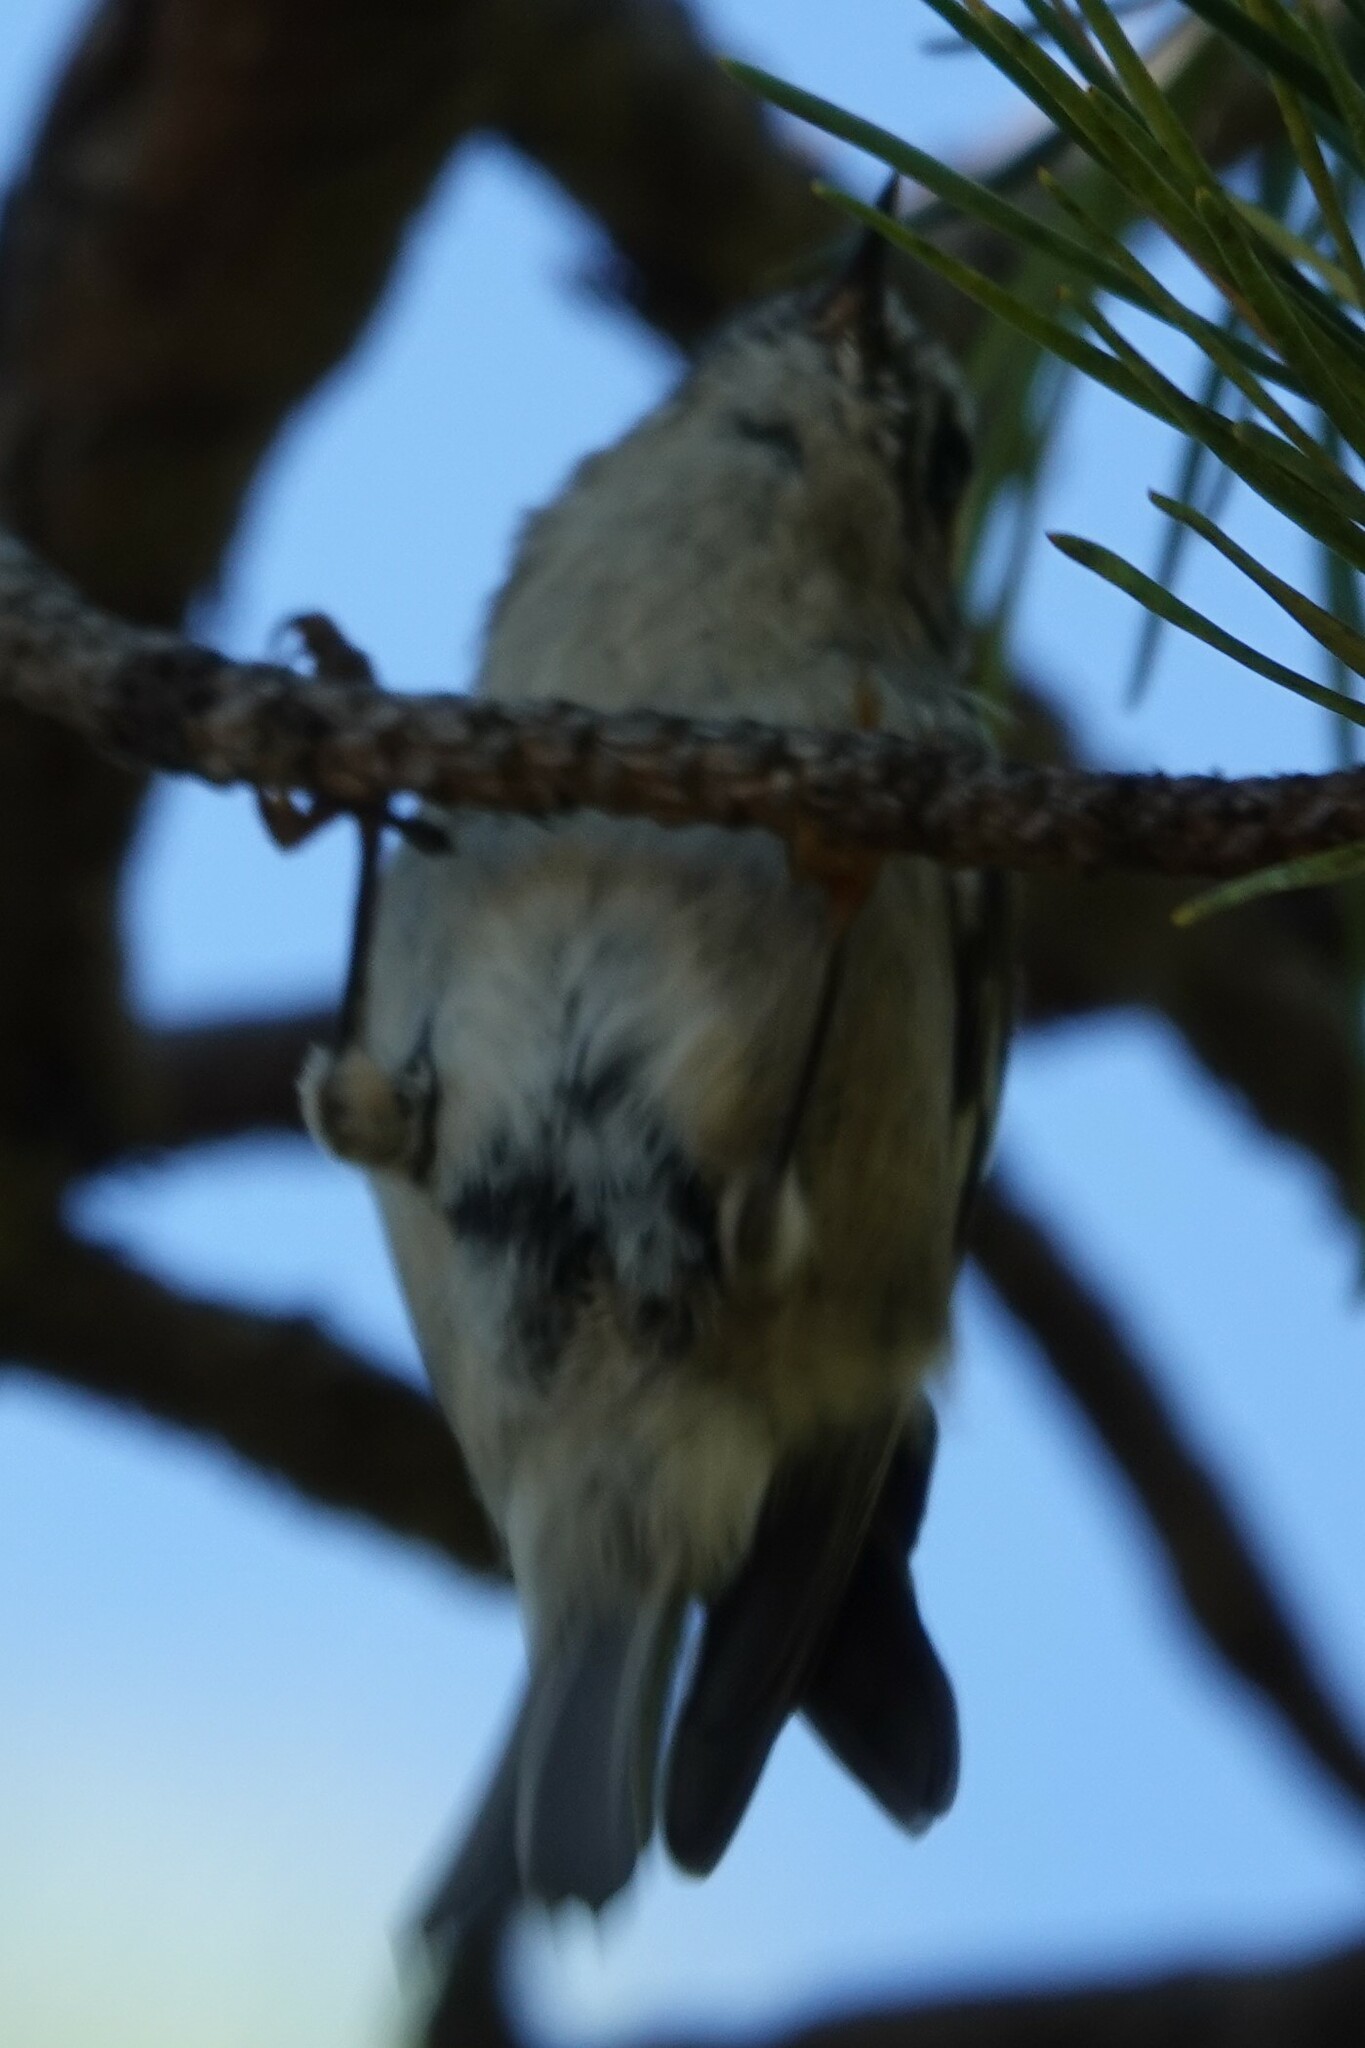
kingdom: Animalia
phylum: Chordata
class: Aves
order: Passeriformes
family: Regulidae
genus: Regulus
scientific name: Regulus satrapa
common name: Golden-crowned kinglet
